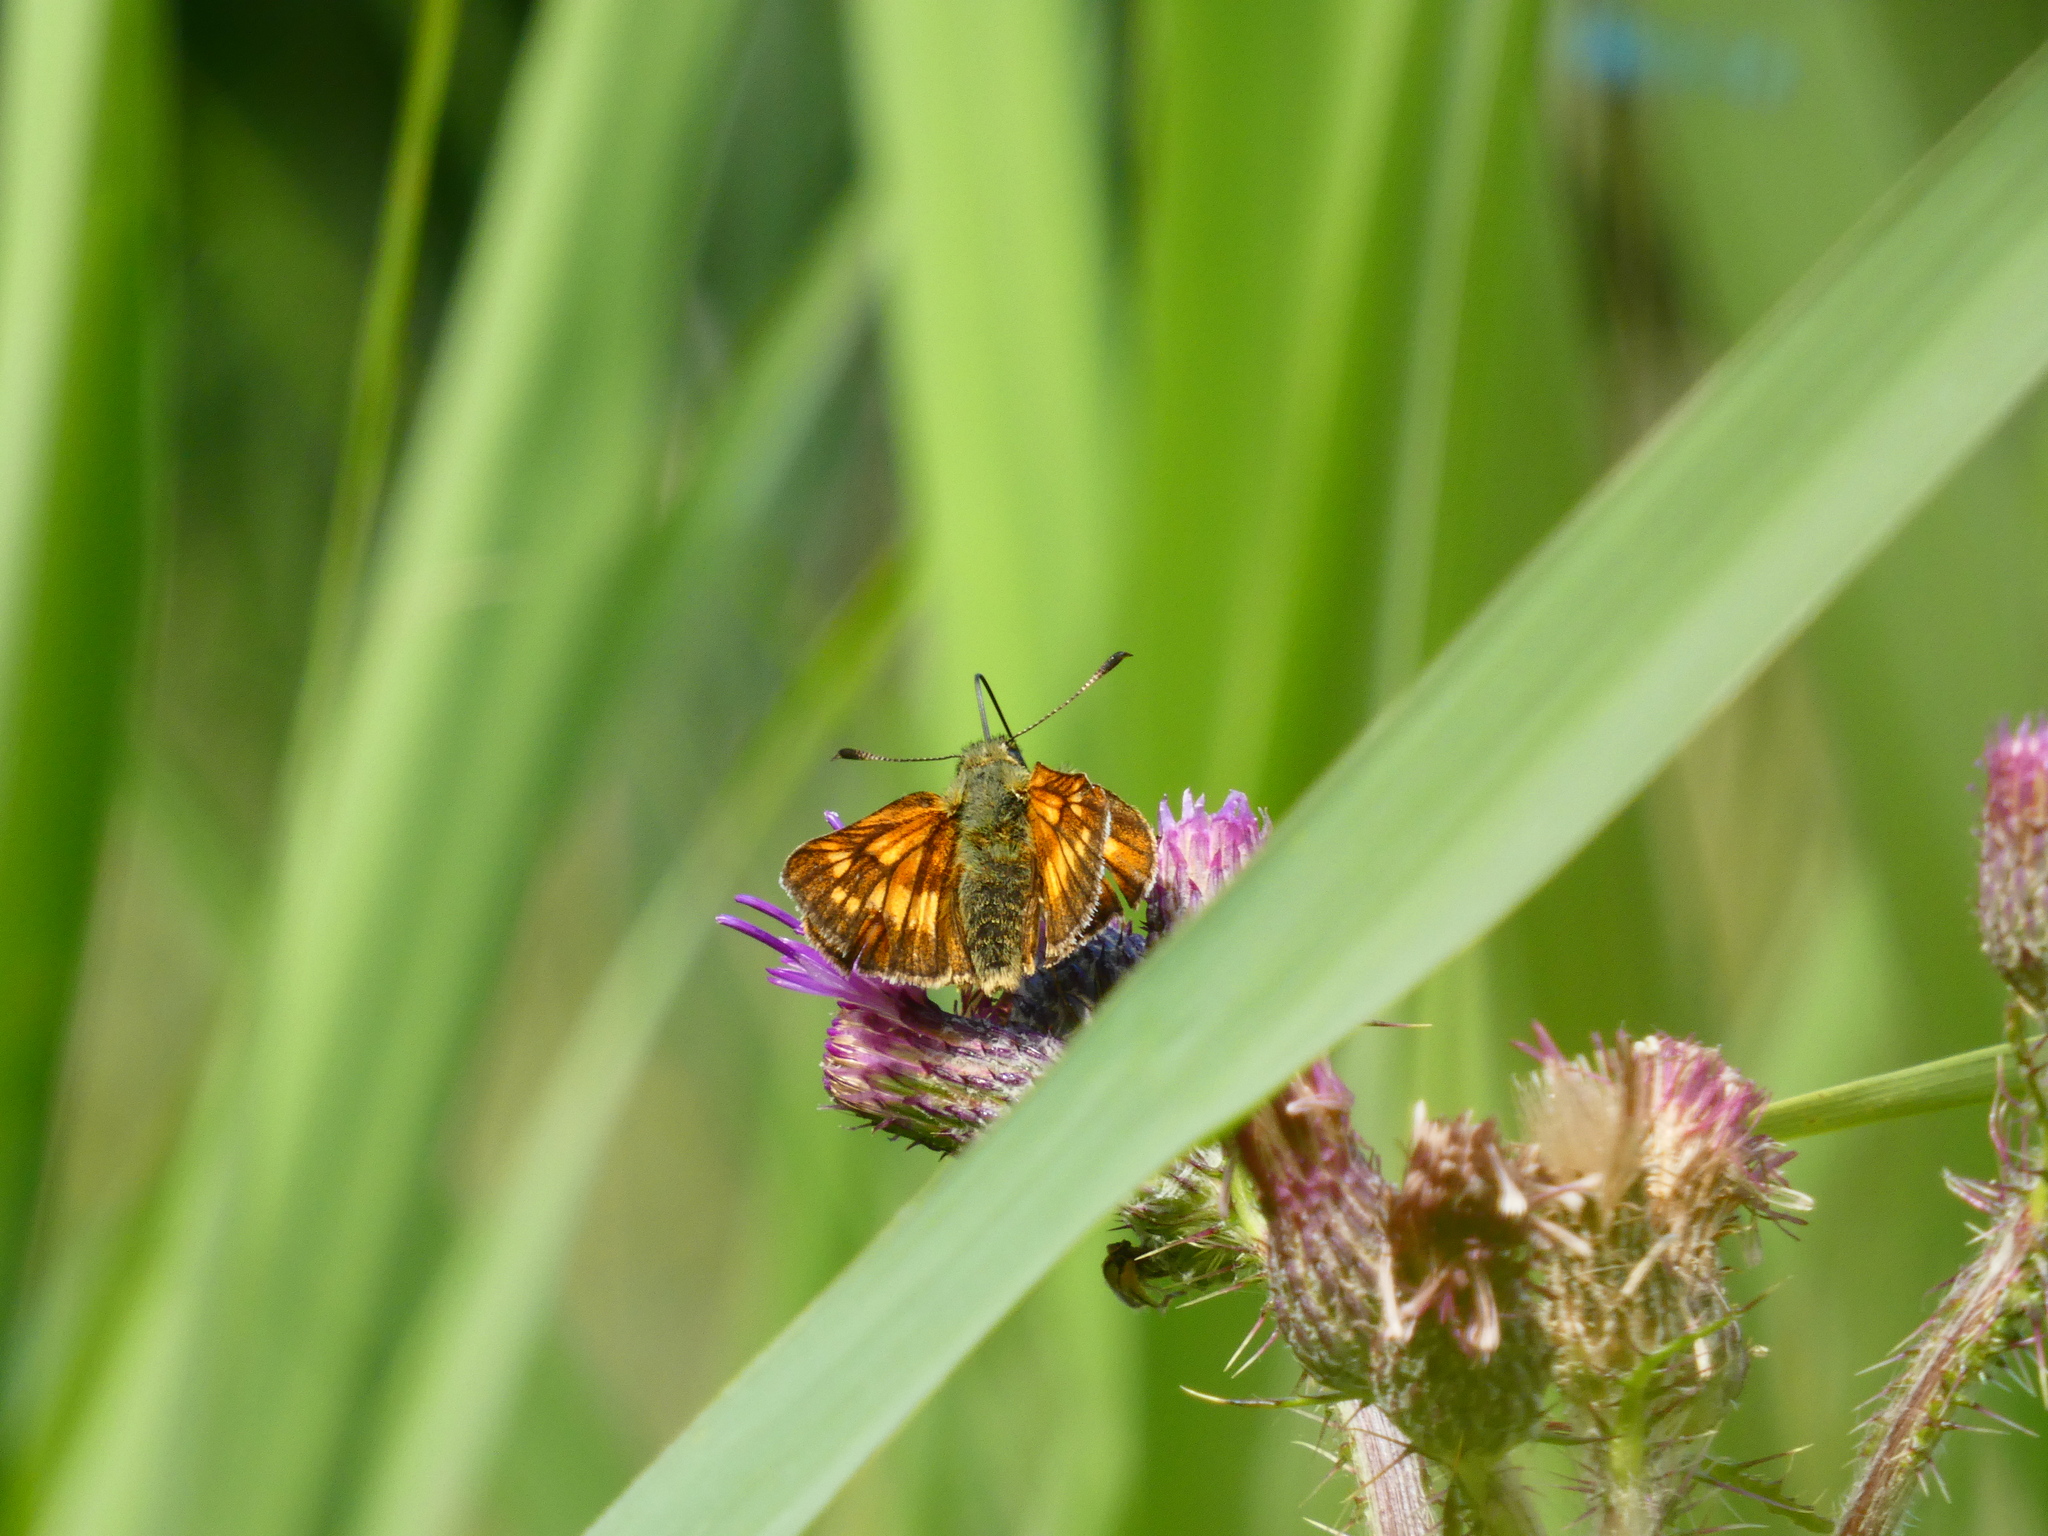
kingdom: Animalia
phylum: Arthropoda
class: Insecta
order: Lepidoptera
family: Hesperiidae
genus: Ochlodes
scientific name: Ochlodes venata
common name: Large skipper
